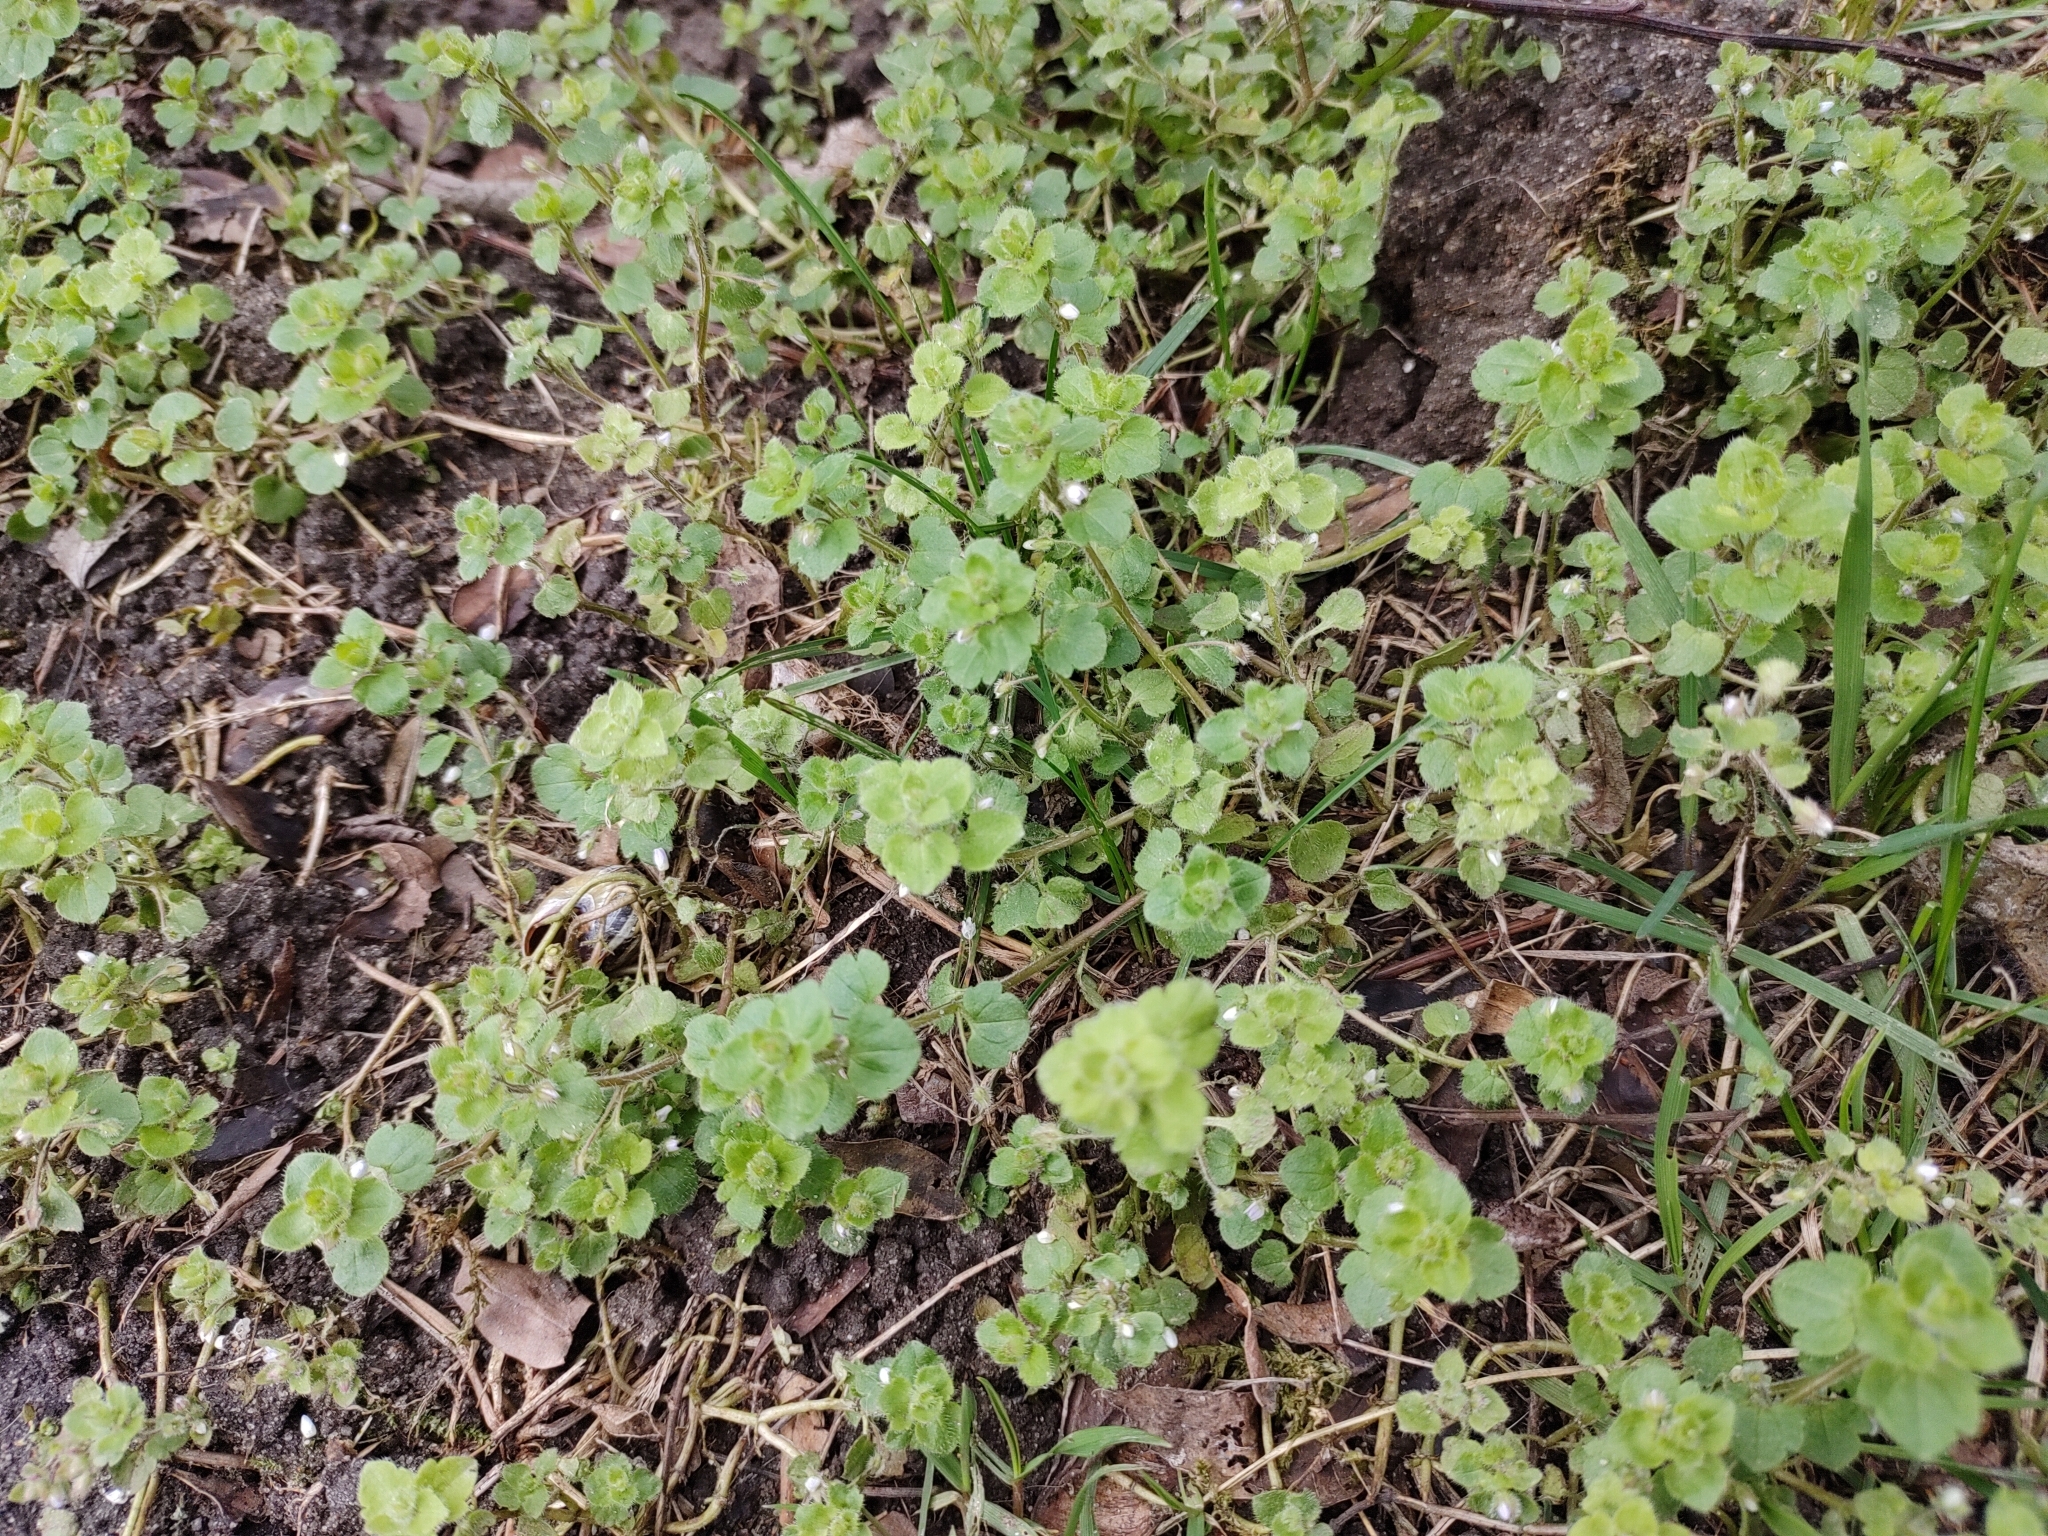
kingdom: Plantae
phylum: Tracheophyta
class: Magnoliopsida
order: Lamiales
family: Plantaginaceae
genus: Veronica
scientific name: Veronica sublobata
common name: False ivy-leaved speedwell
